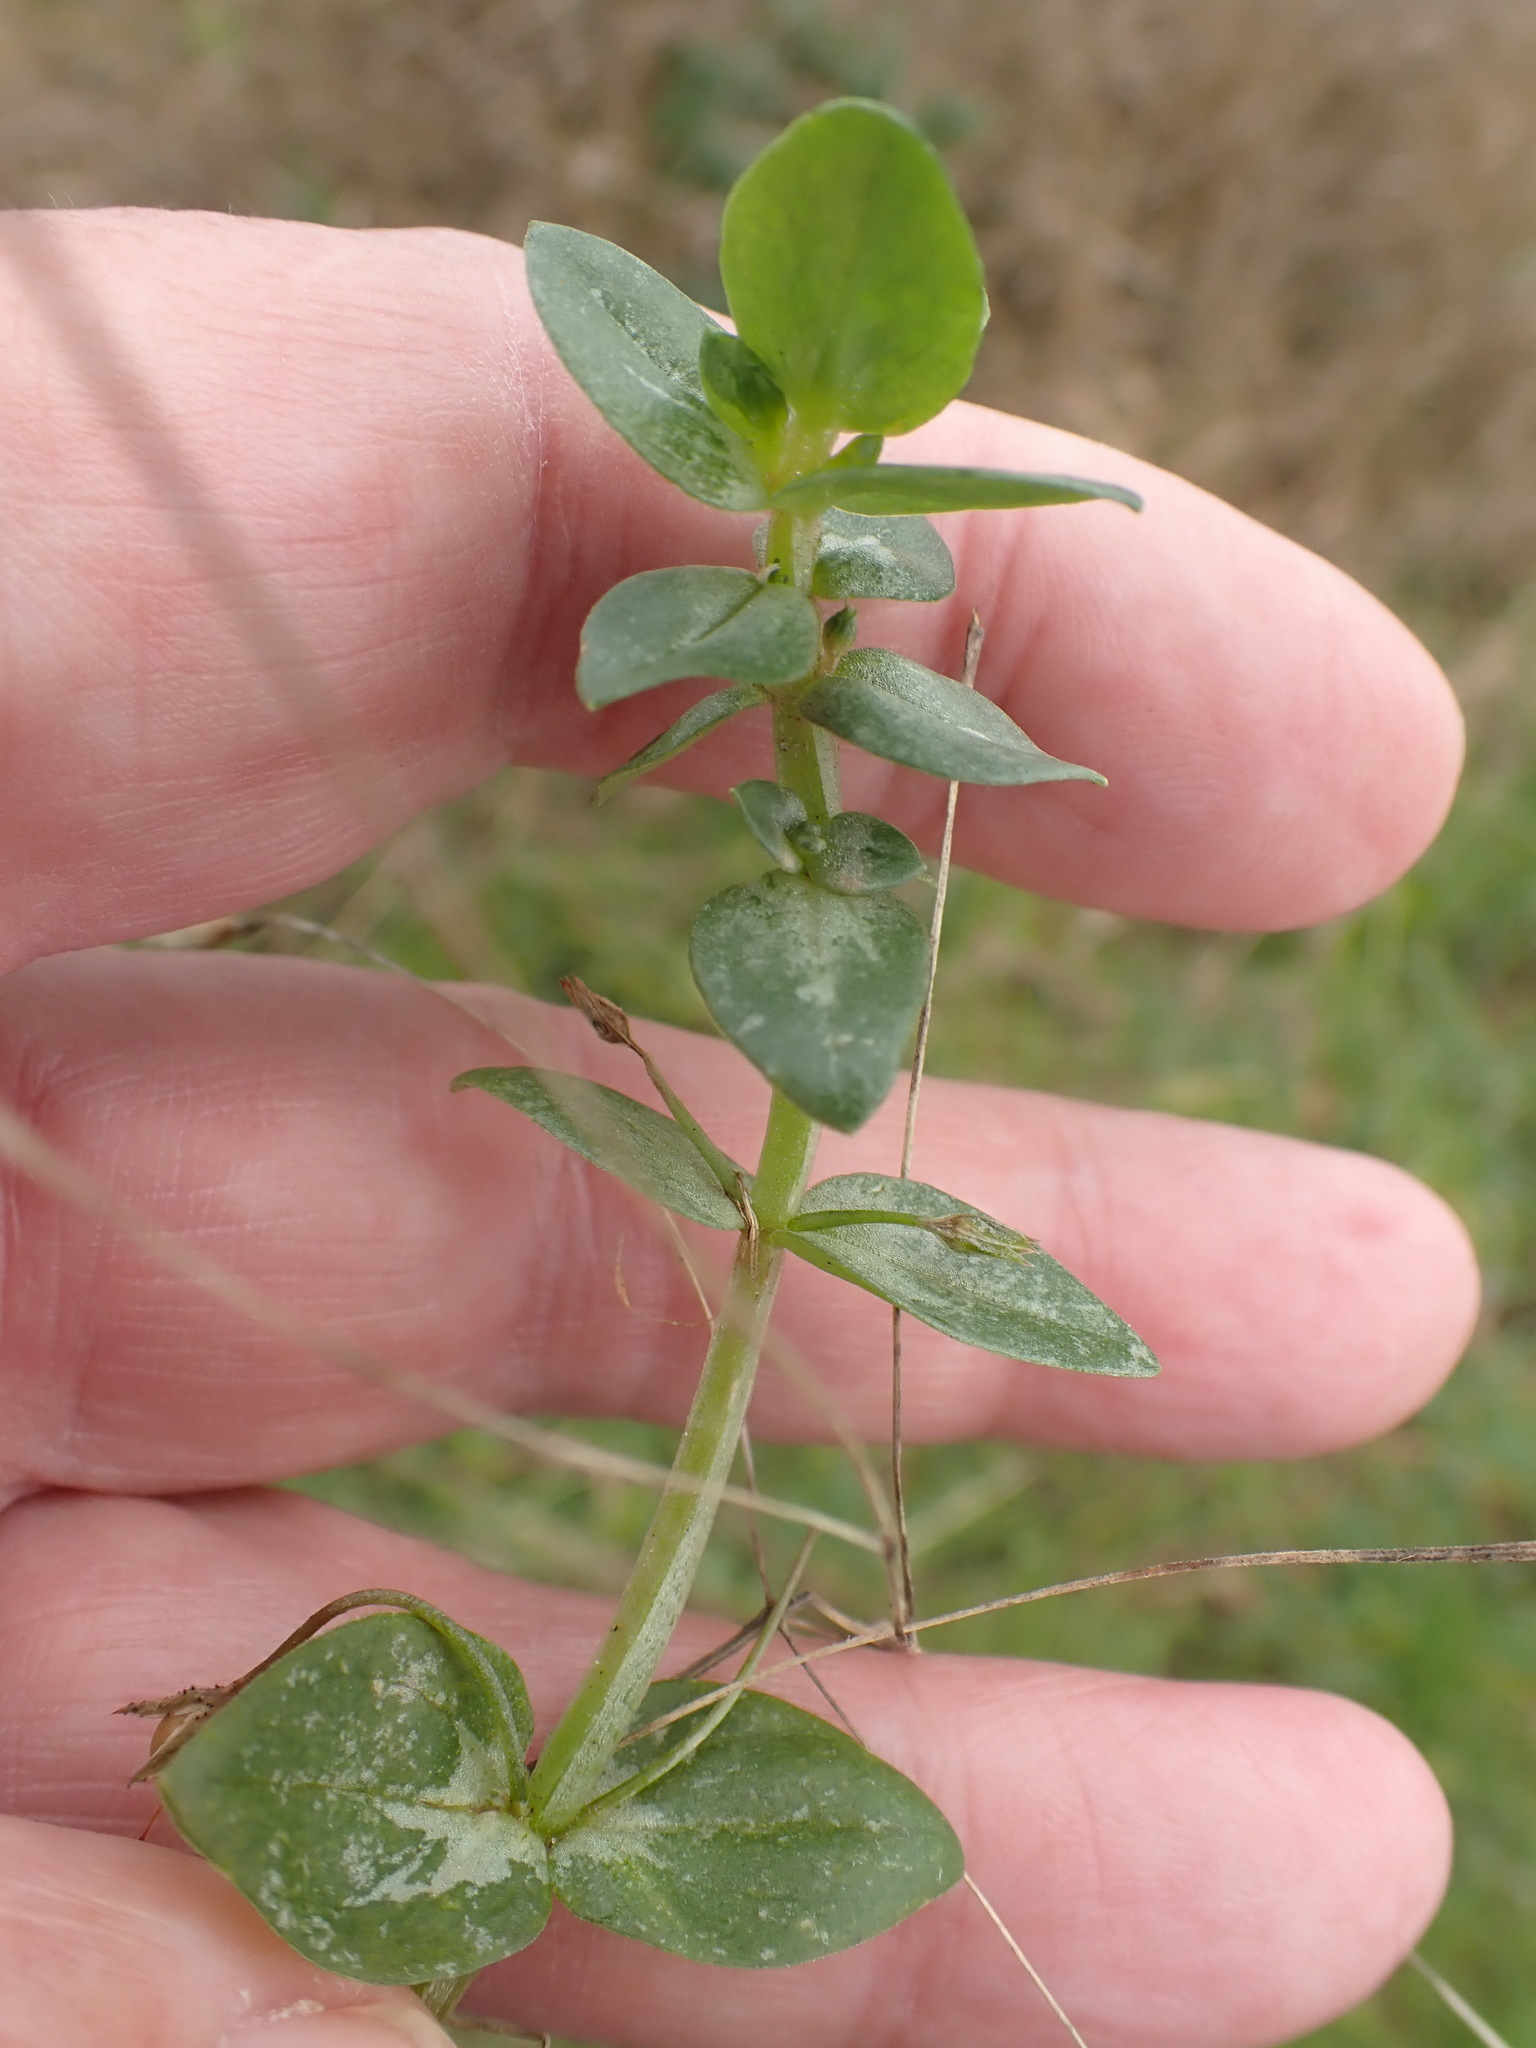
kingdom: Plantae
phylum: Tracheophyta
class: Magnoliopsida
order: Ericales
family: Primulaceae
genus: Lysimachia
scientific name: Lysimachia arvensis
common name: Scarlet pimpernel
